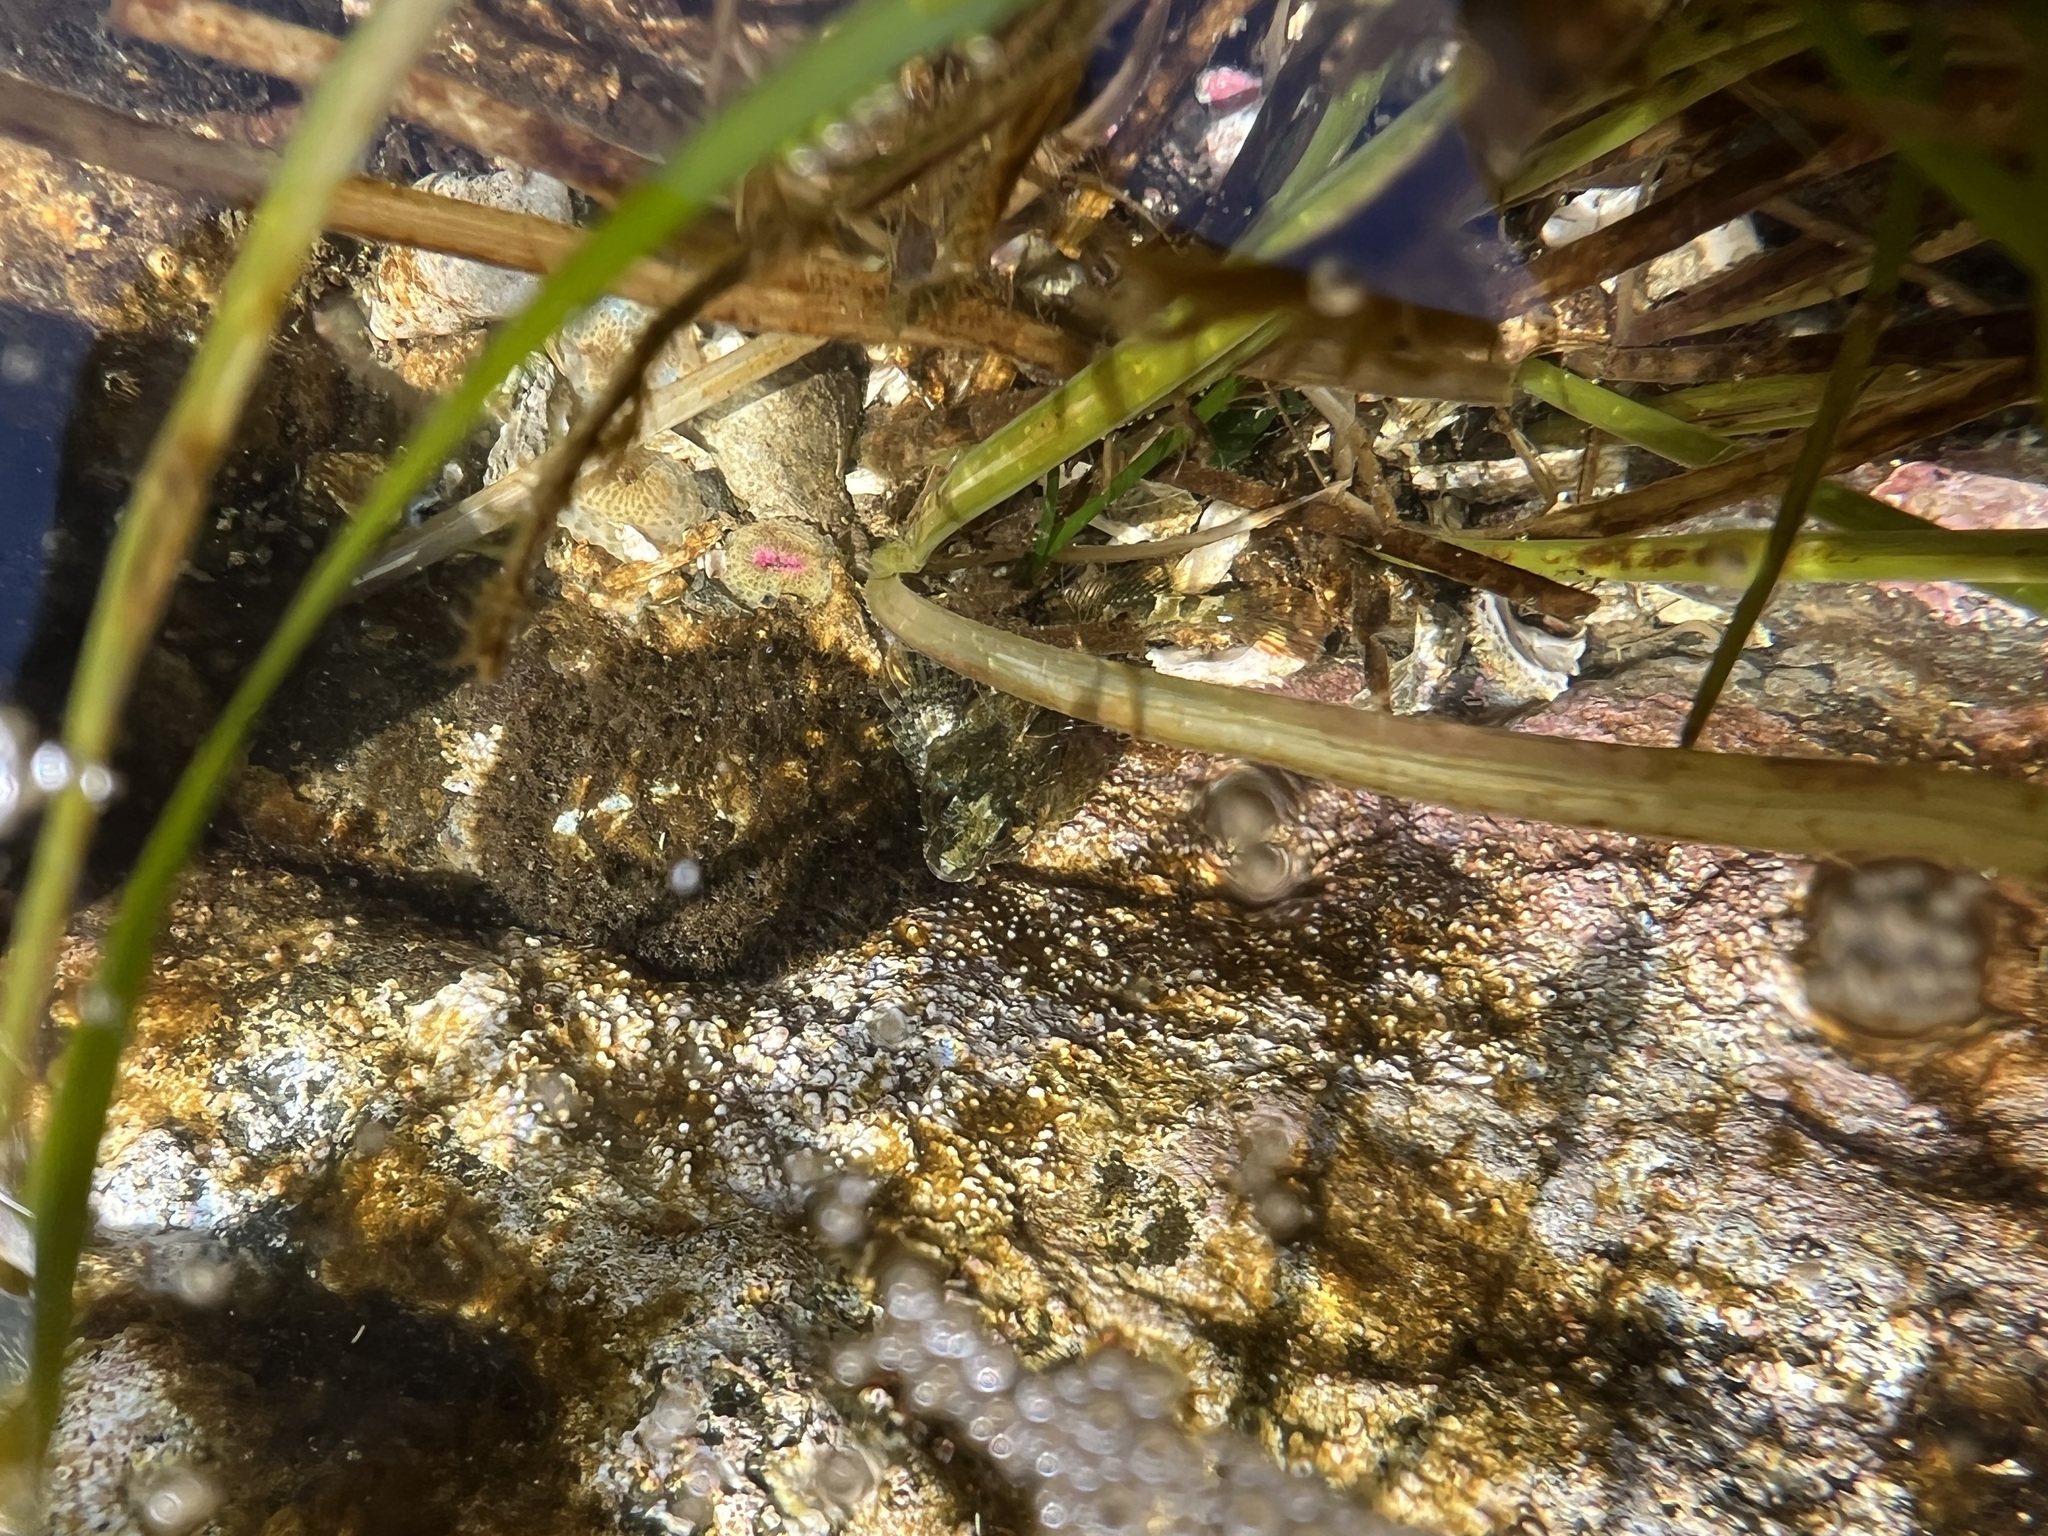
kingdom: Animalia
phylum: Chordata
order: Scorpaeniformes
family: Cottidae
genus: Oligocottus
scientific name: Oligocottus maculosus
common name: Tidepool sculpin
